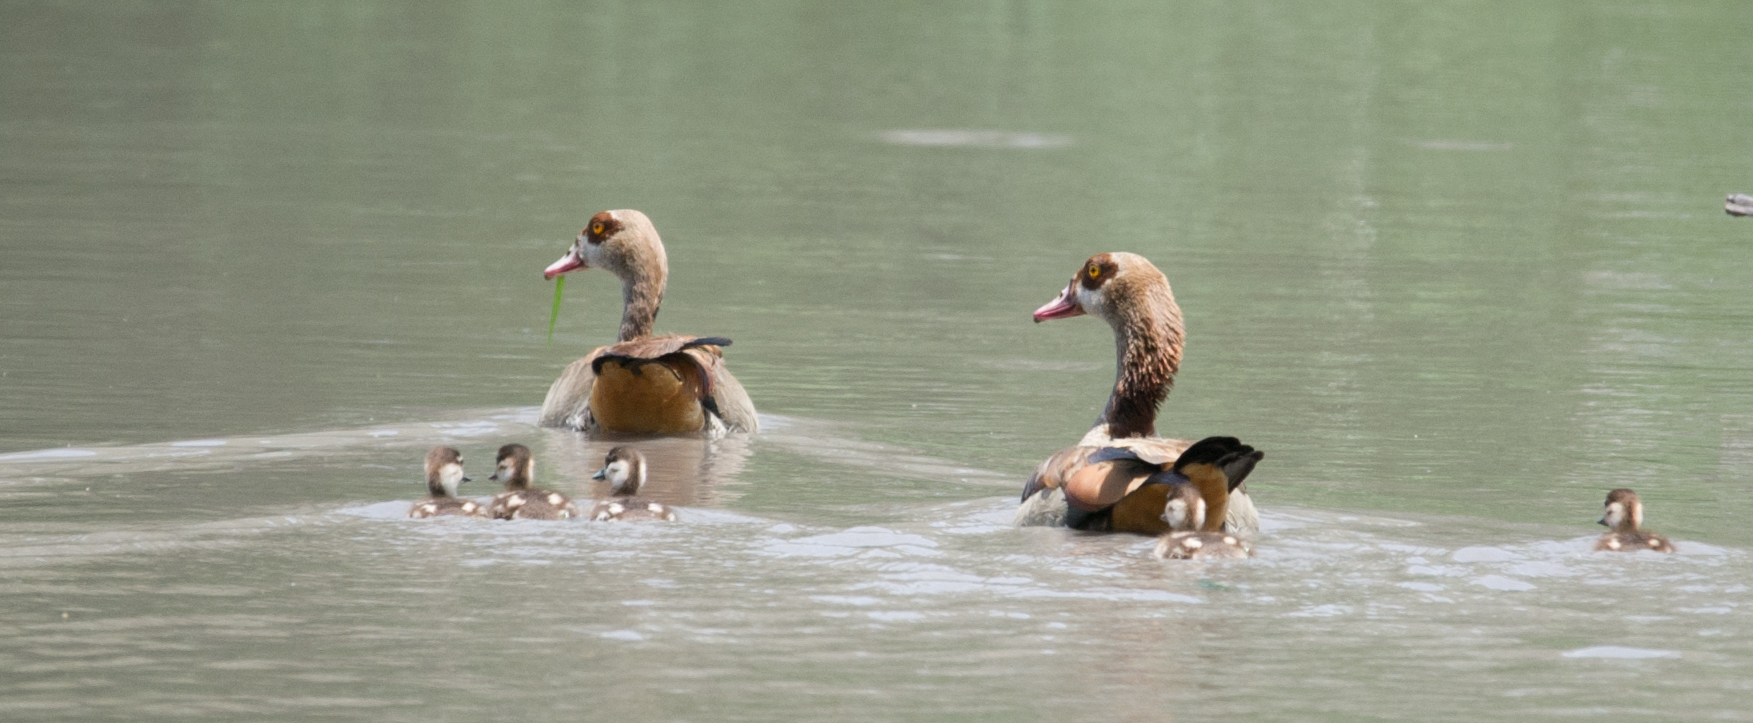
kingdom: Animalia
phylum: Chordata
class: Aves
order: Anseriformes
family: Anatidae
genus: Alopochen
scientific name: Alopochen aegyptiaca
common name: Egyptian goose
